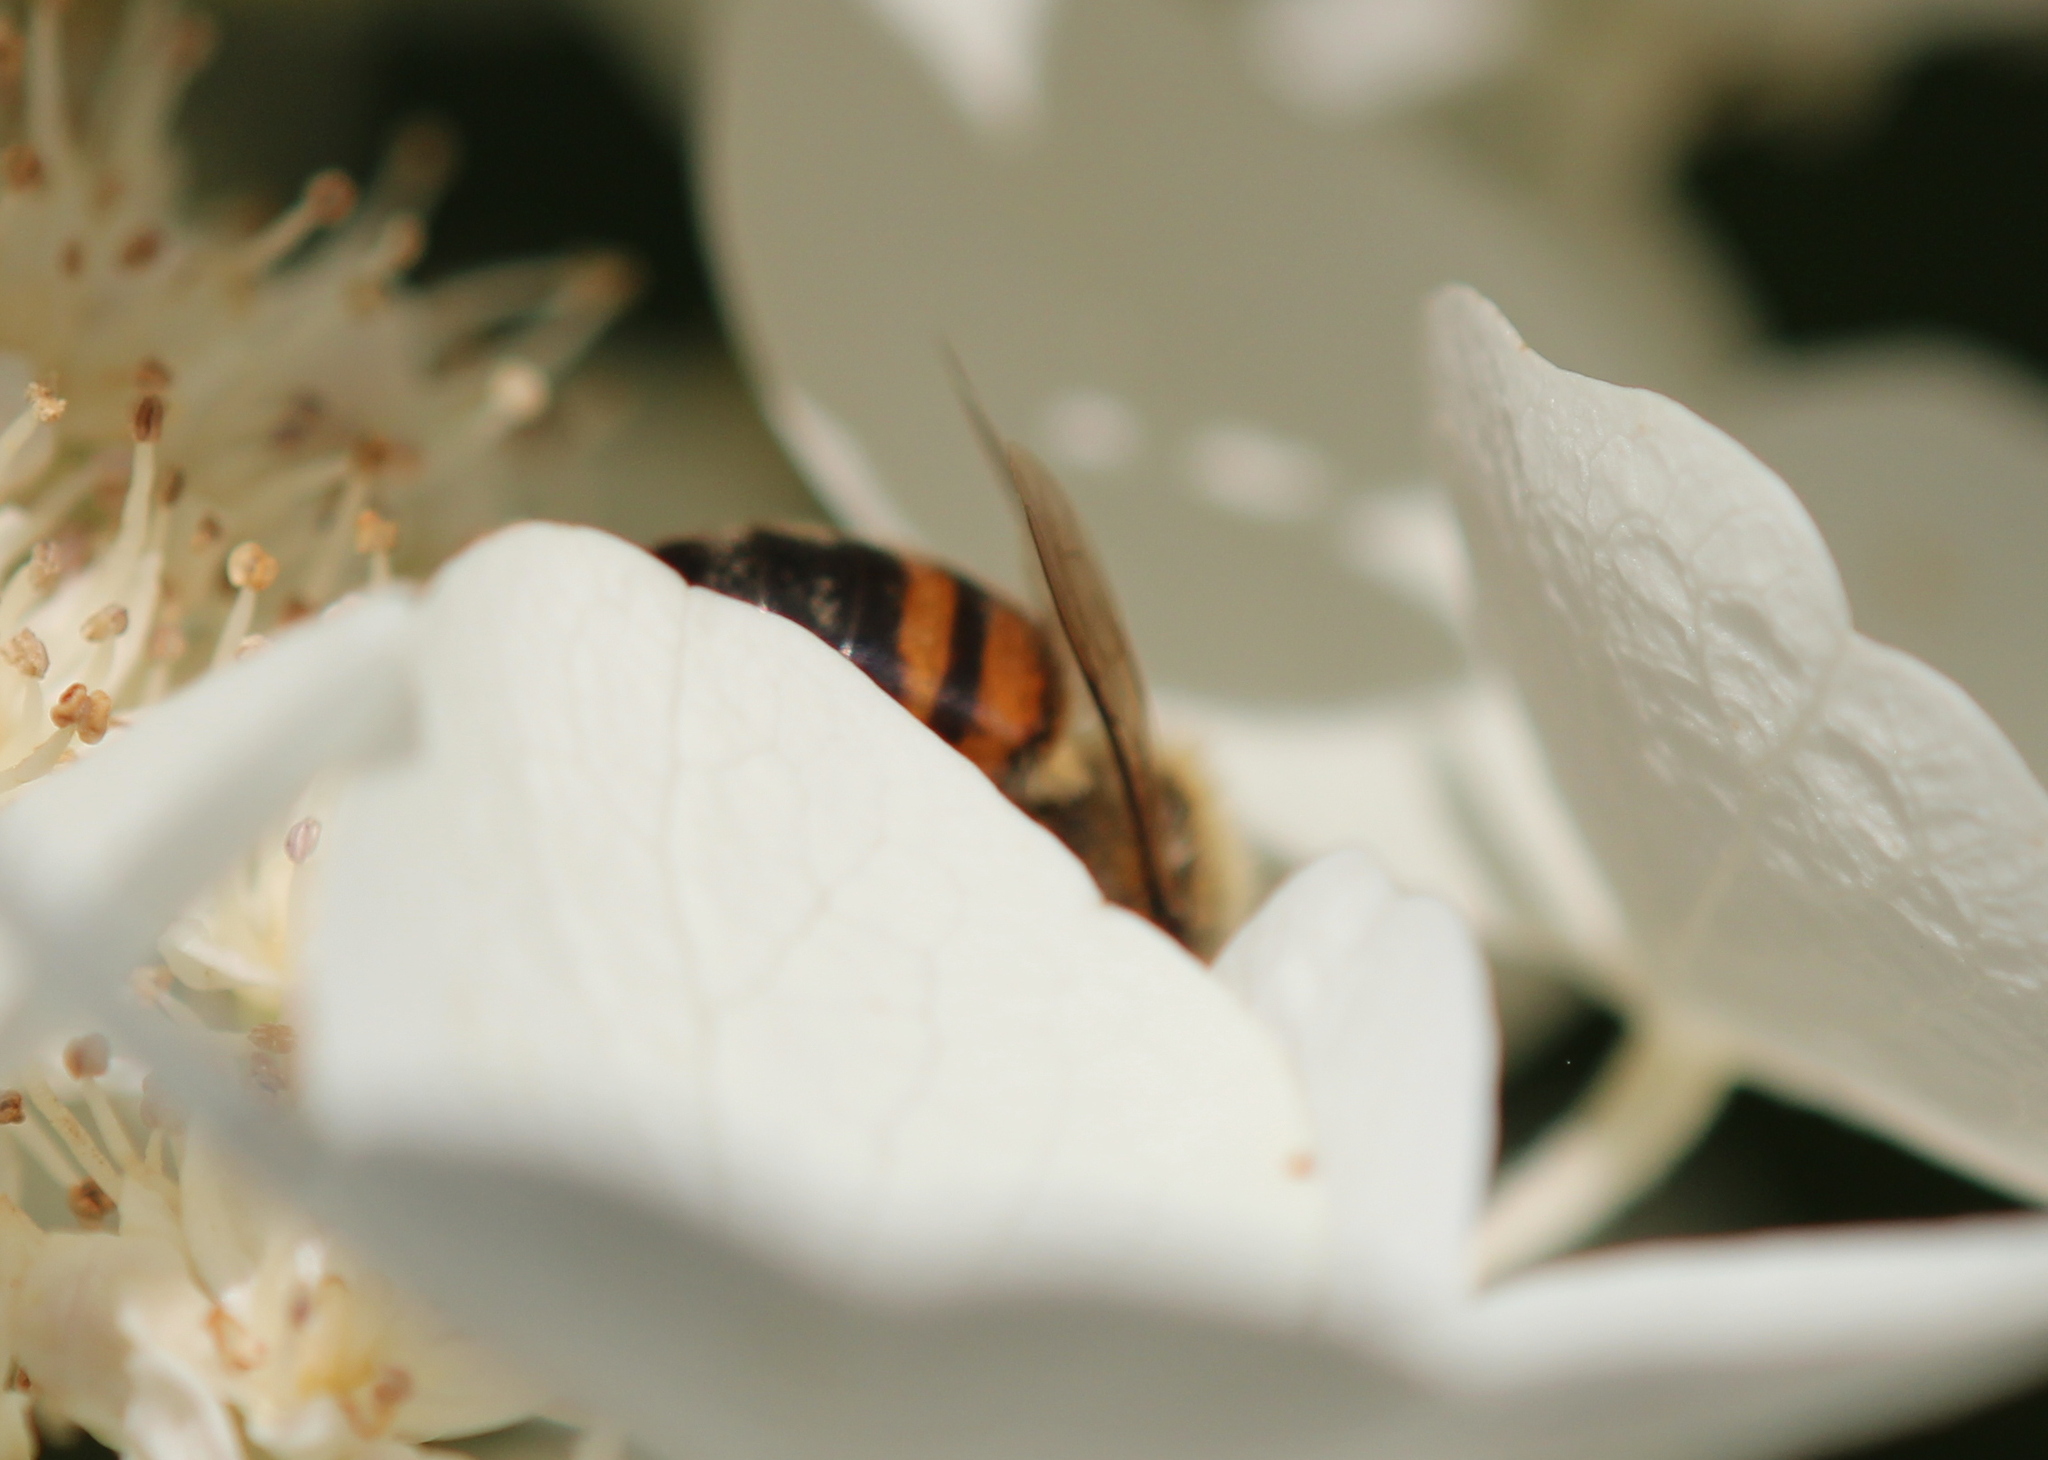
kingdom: Animalia
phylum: Arthropoda
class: Insecta
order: Hymenoptera
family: Apidae
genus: Apis
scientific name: Apis mellifera
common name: Honey bee
